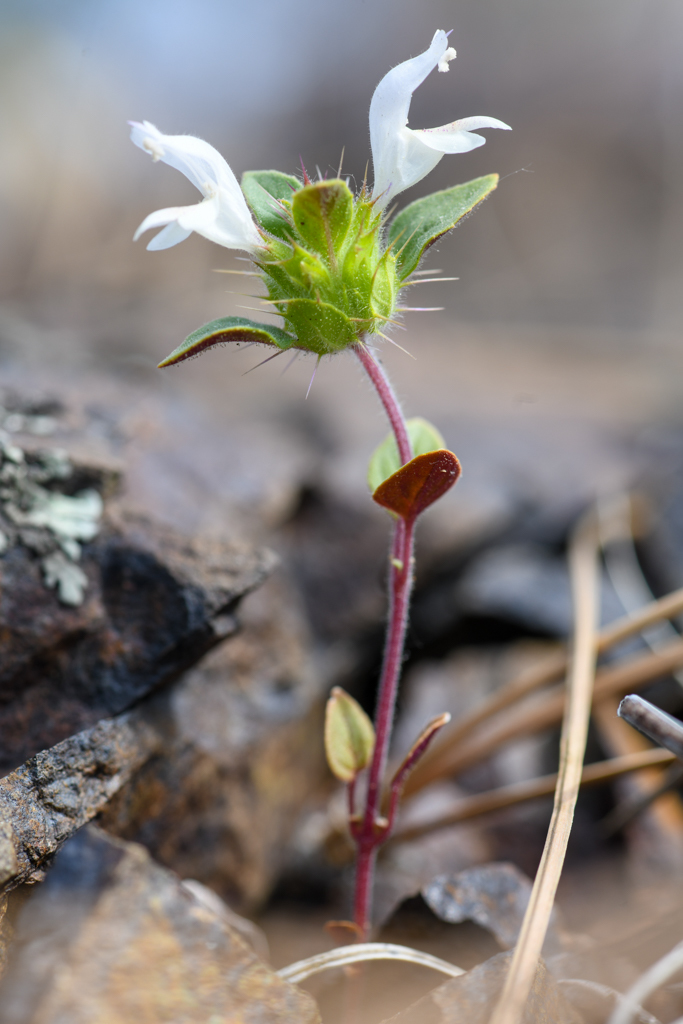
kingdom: Plantae
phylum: Tracheophyta
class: Magnoliopsida
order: Lamiales
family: Lamiaceae
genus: Acanthomintha
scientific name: Acanthomintha lanceolata
